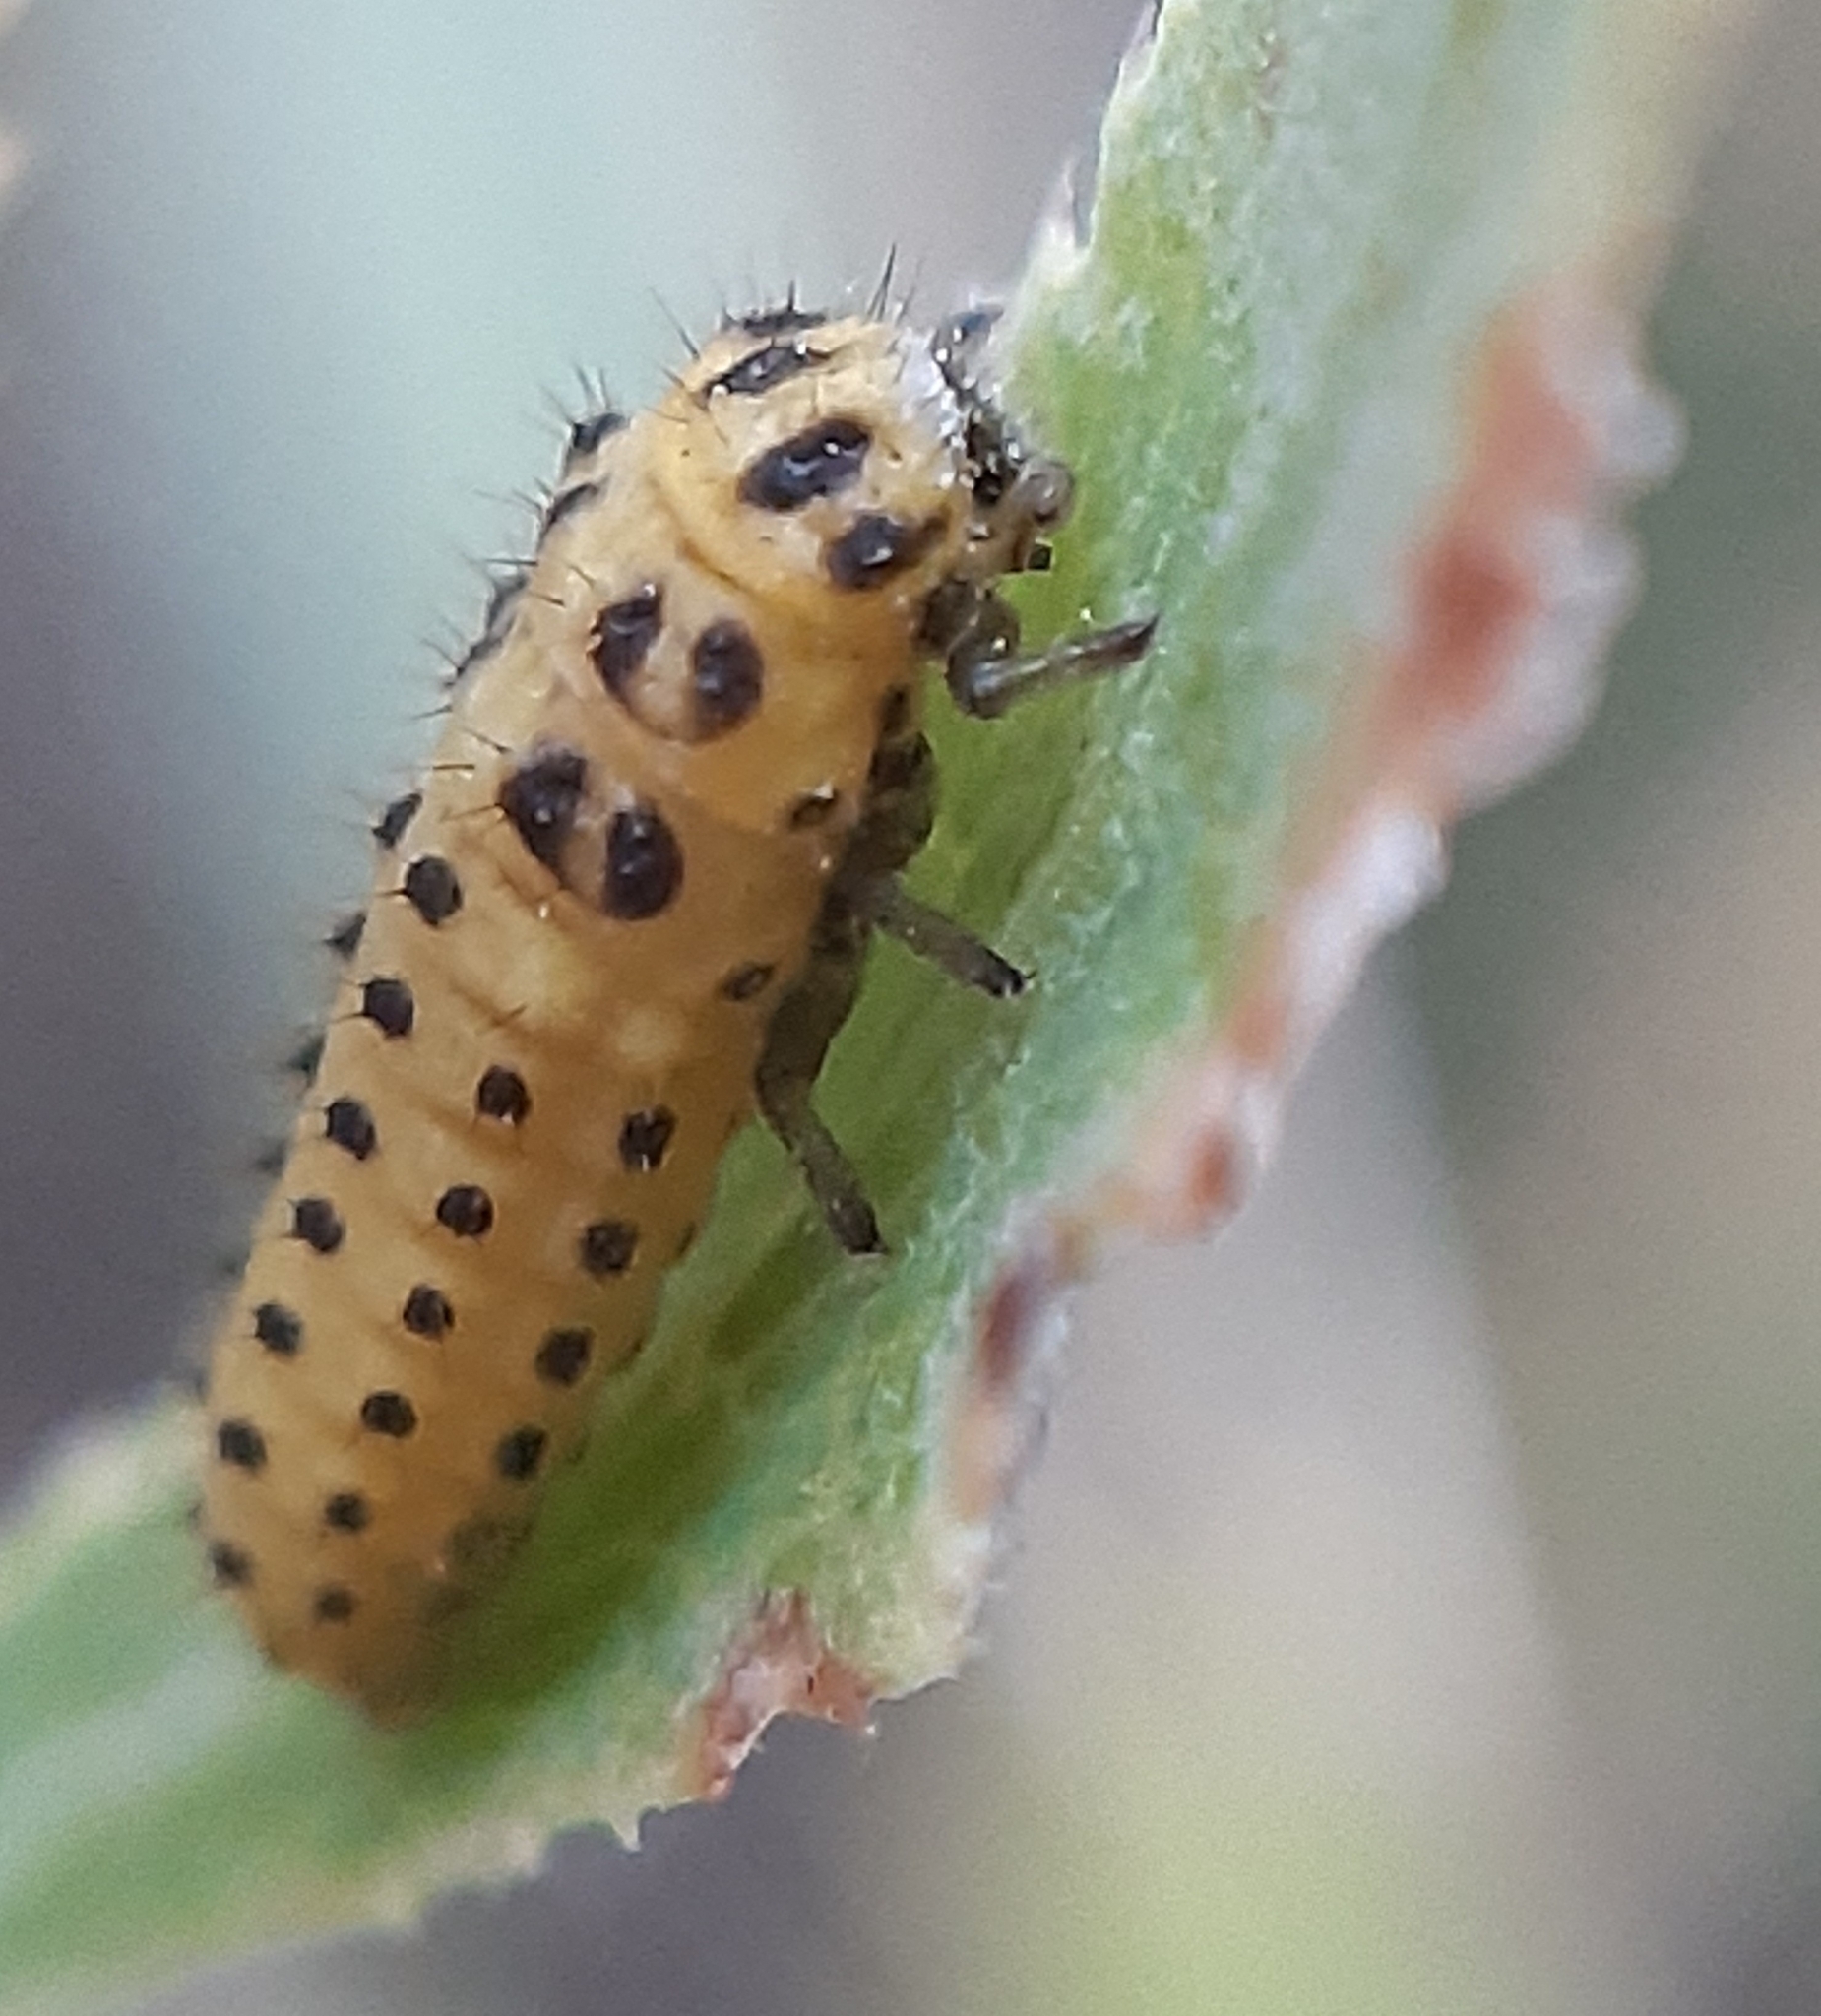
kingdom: Animalia
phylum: Arthropoda
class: Insecta
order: Coleoptera
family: Coccinellidae
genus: Psyllobora
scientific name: Psyllobora vigintiduopunctata
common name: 22-spot ladybird
